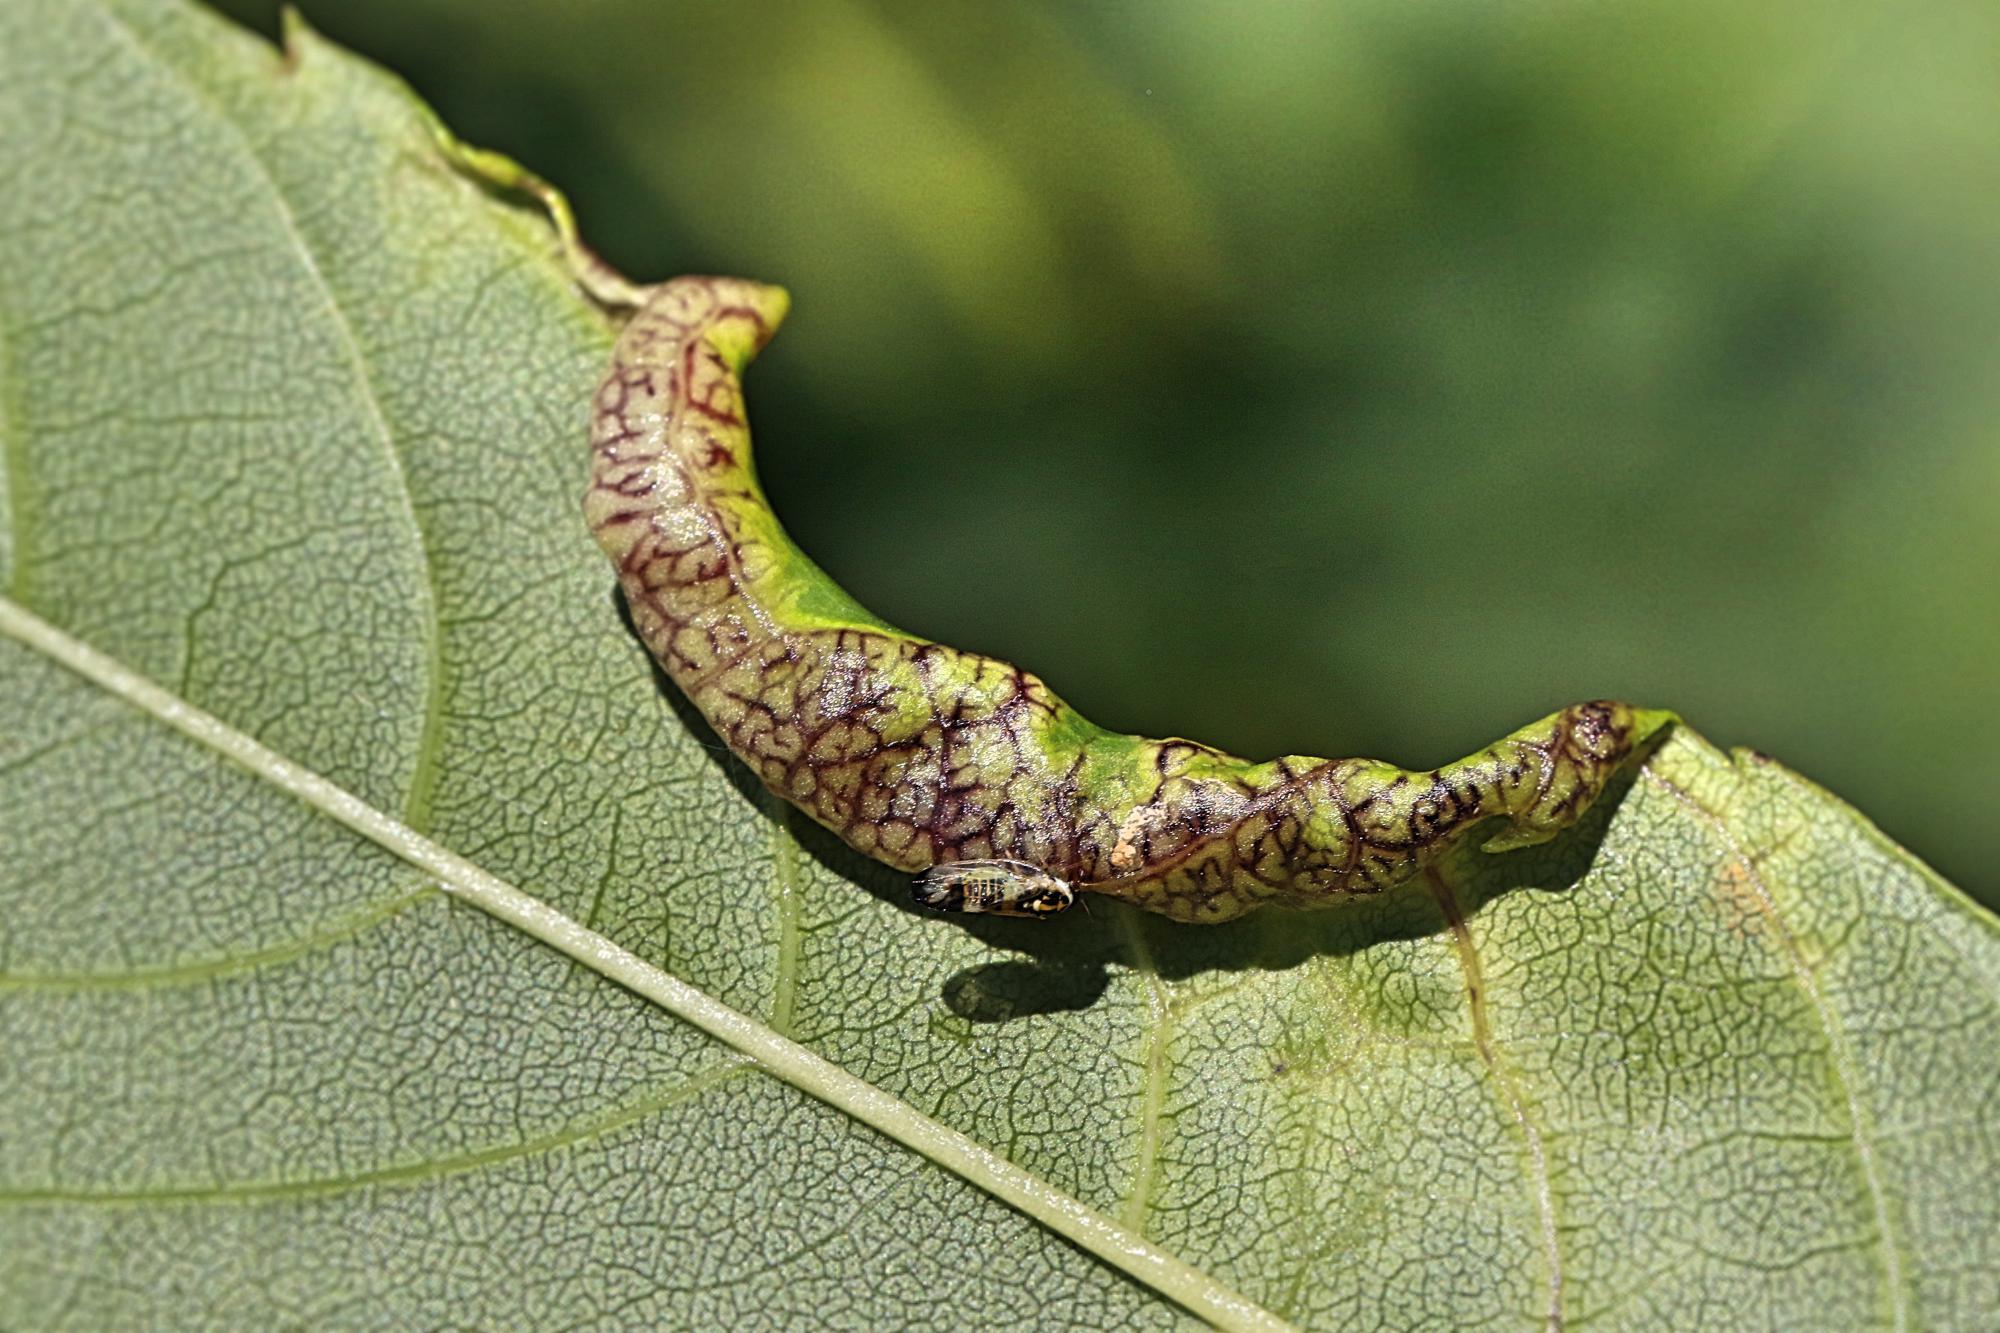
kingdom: Animalia
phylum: Arthropoda
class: Insecta
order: Hemiptera
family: Liviidae
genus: Psyllopsis
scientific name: Psyllopsis fraxini
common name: Jumping plant louse
